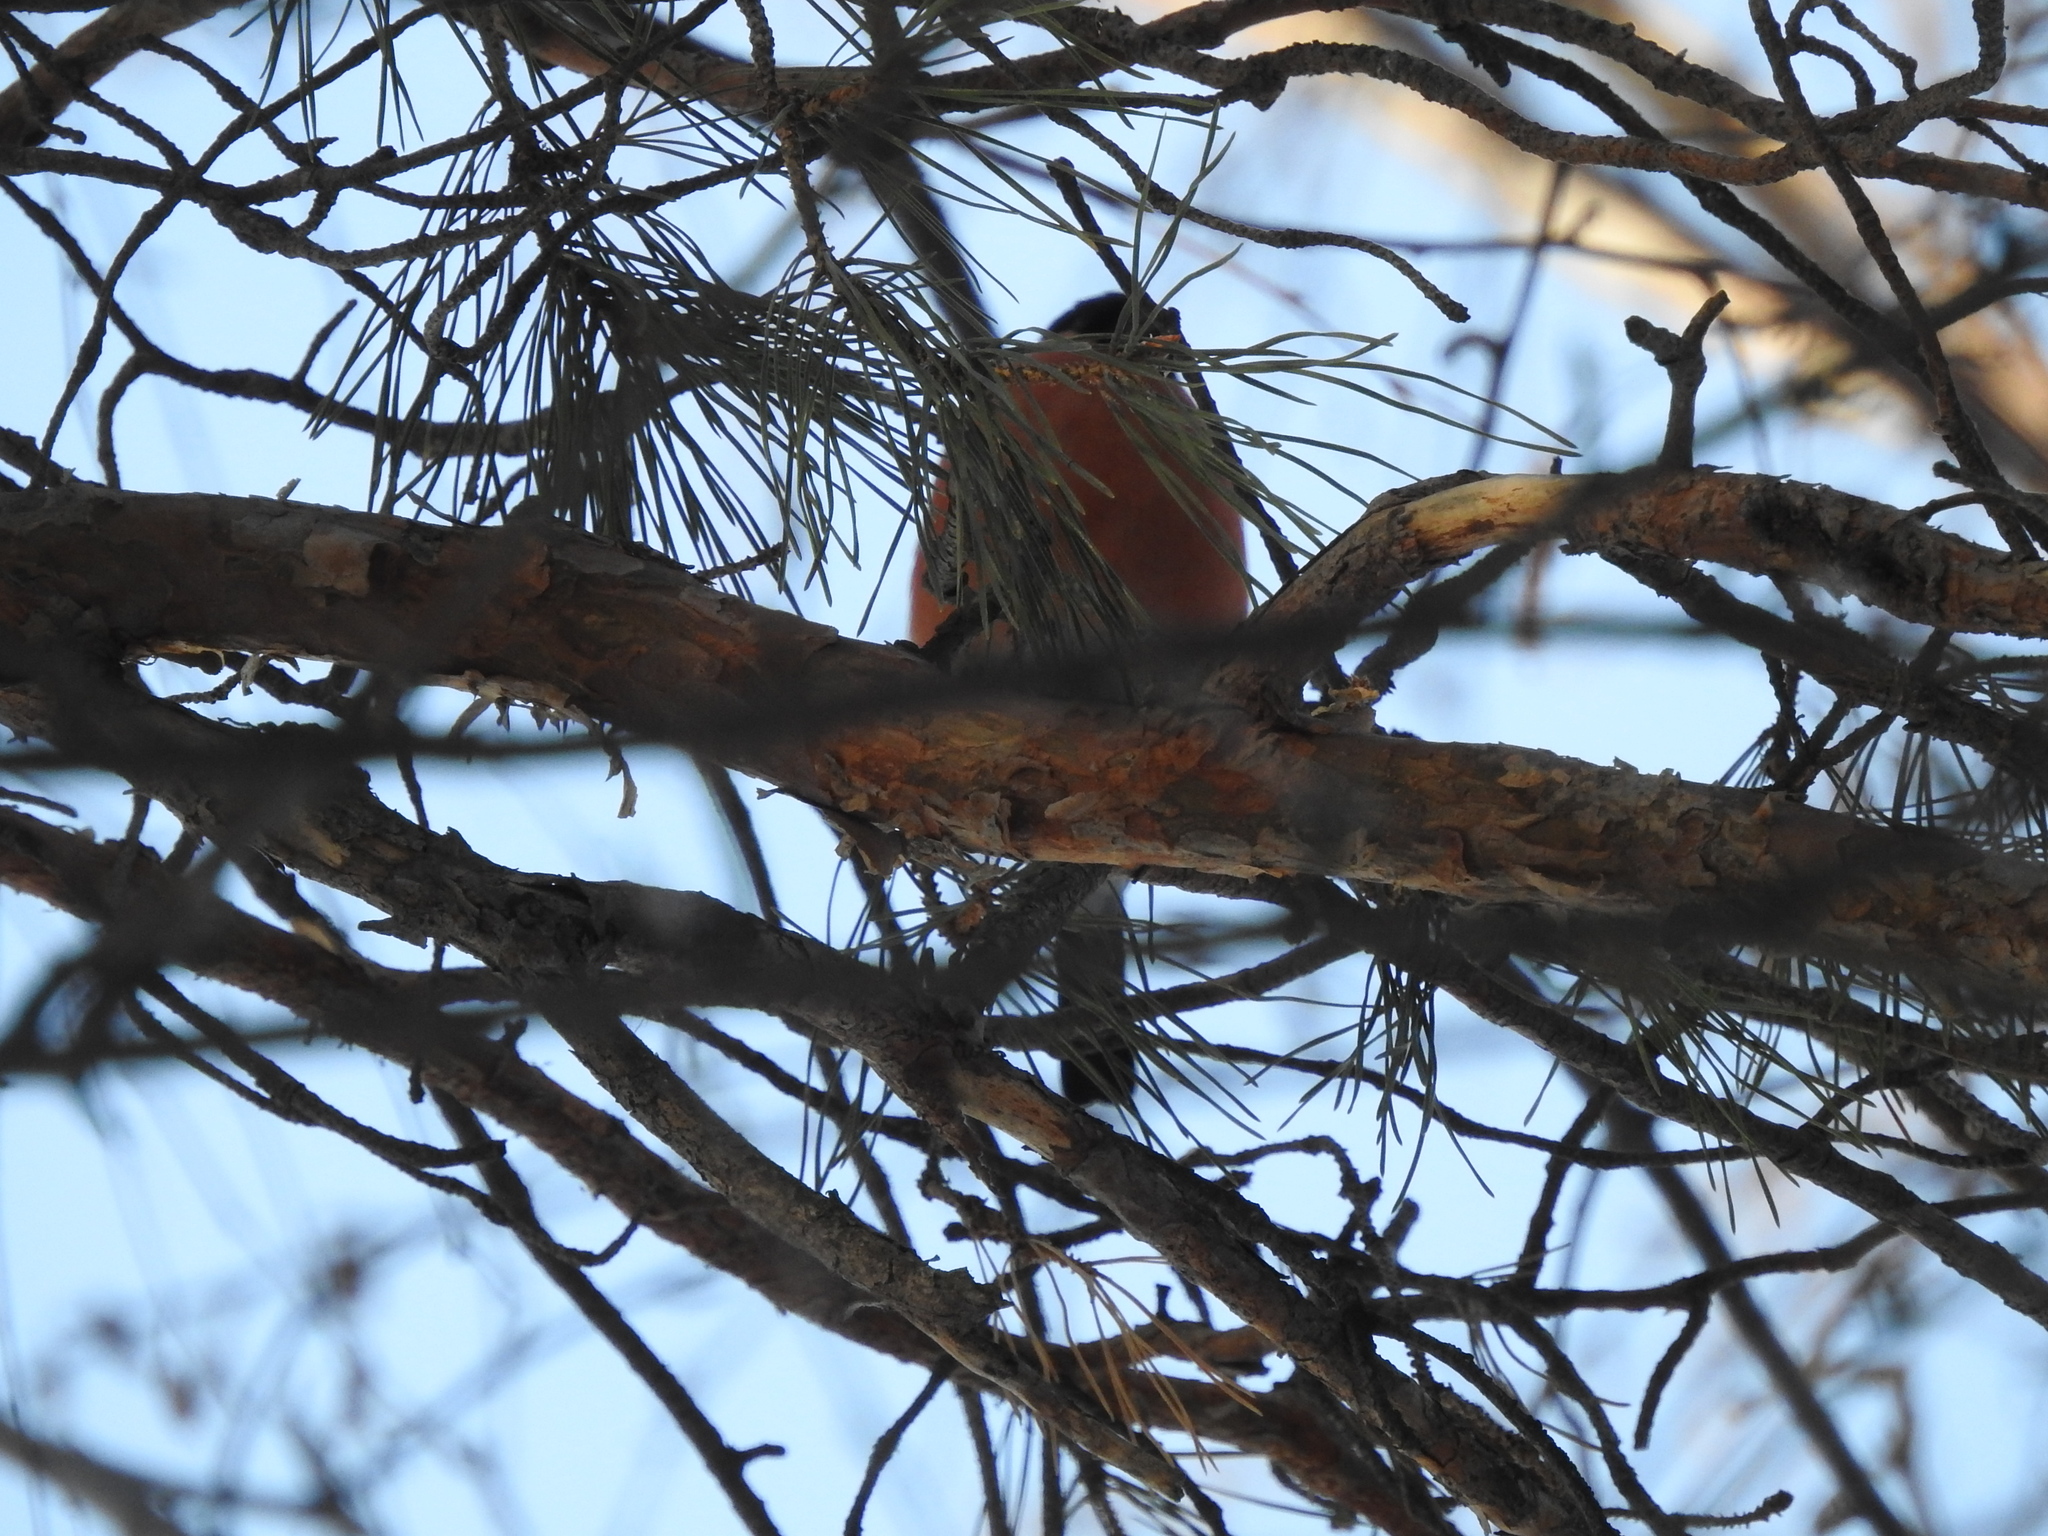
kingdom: Animalia
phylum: Chordata
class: Aves
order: Passeriformes
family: Fringillidae
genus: Pyrrhula
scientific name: Pyrrhula pyrrhula
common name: Eurasian bullfinch
